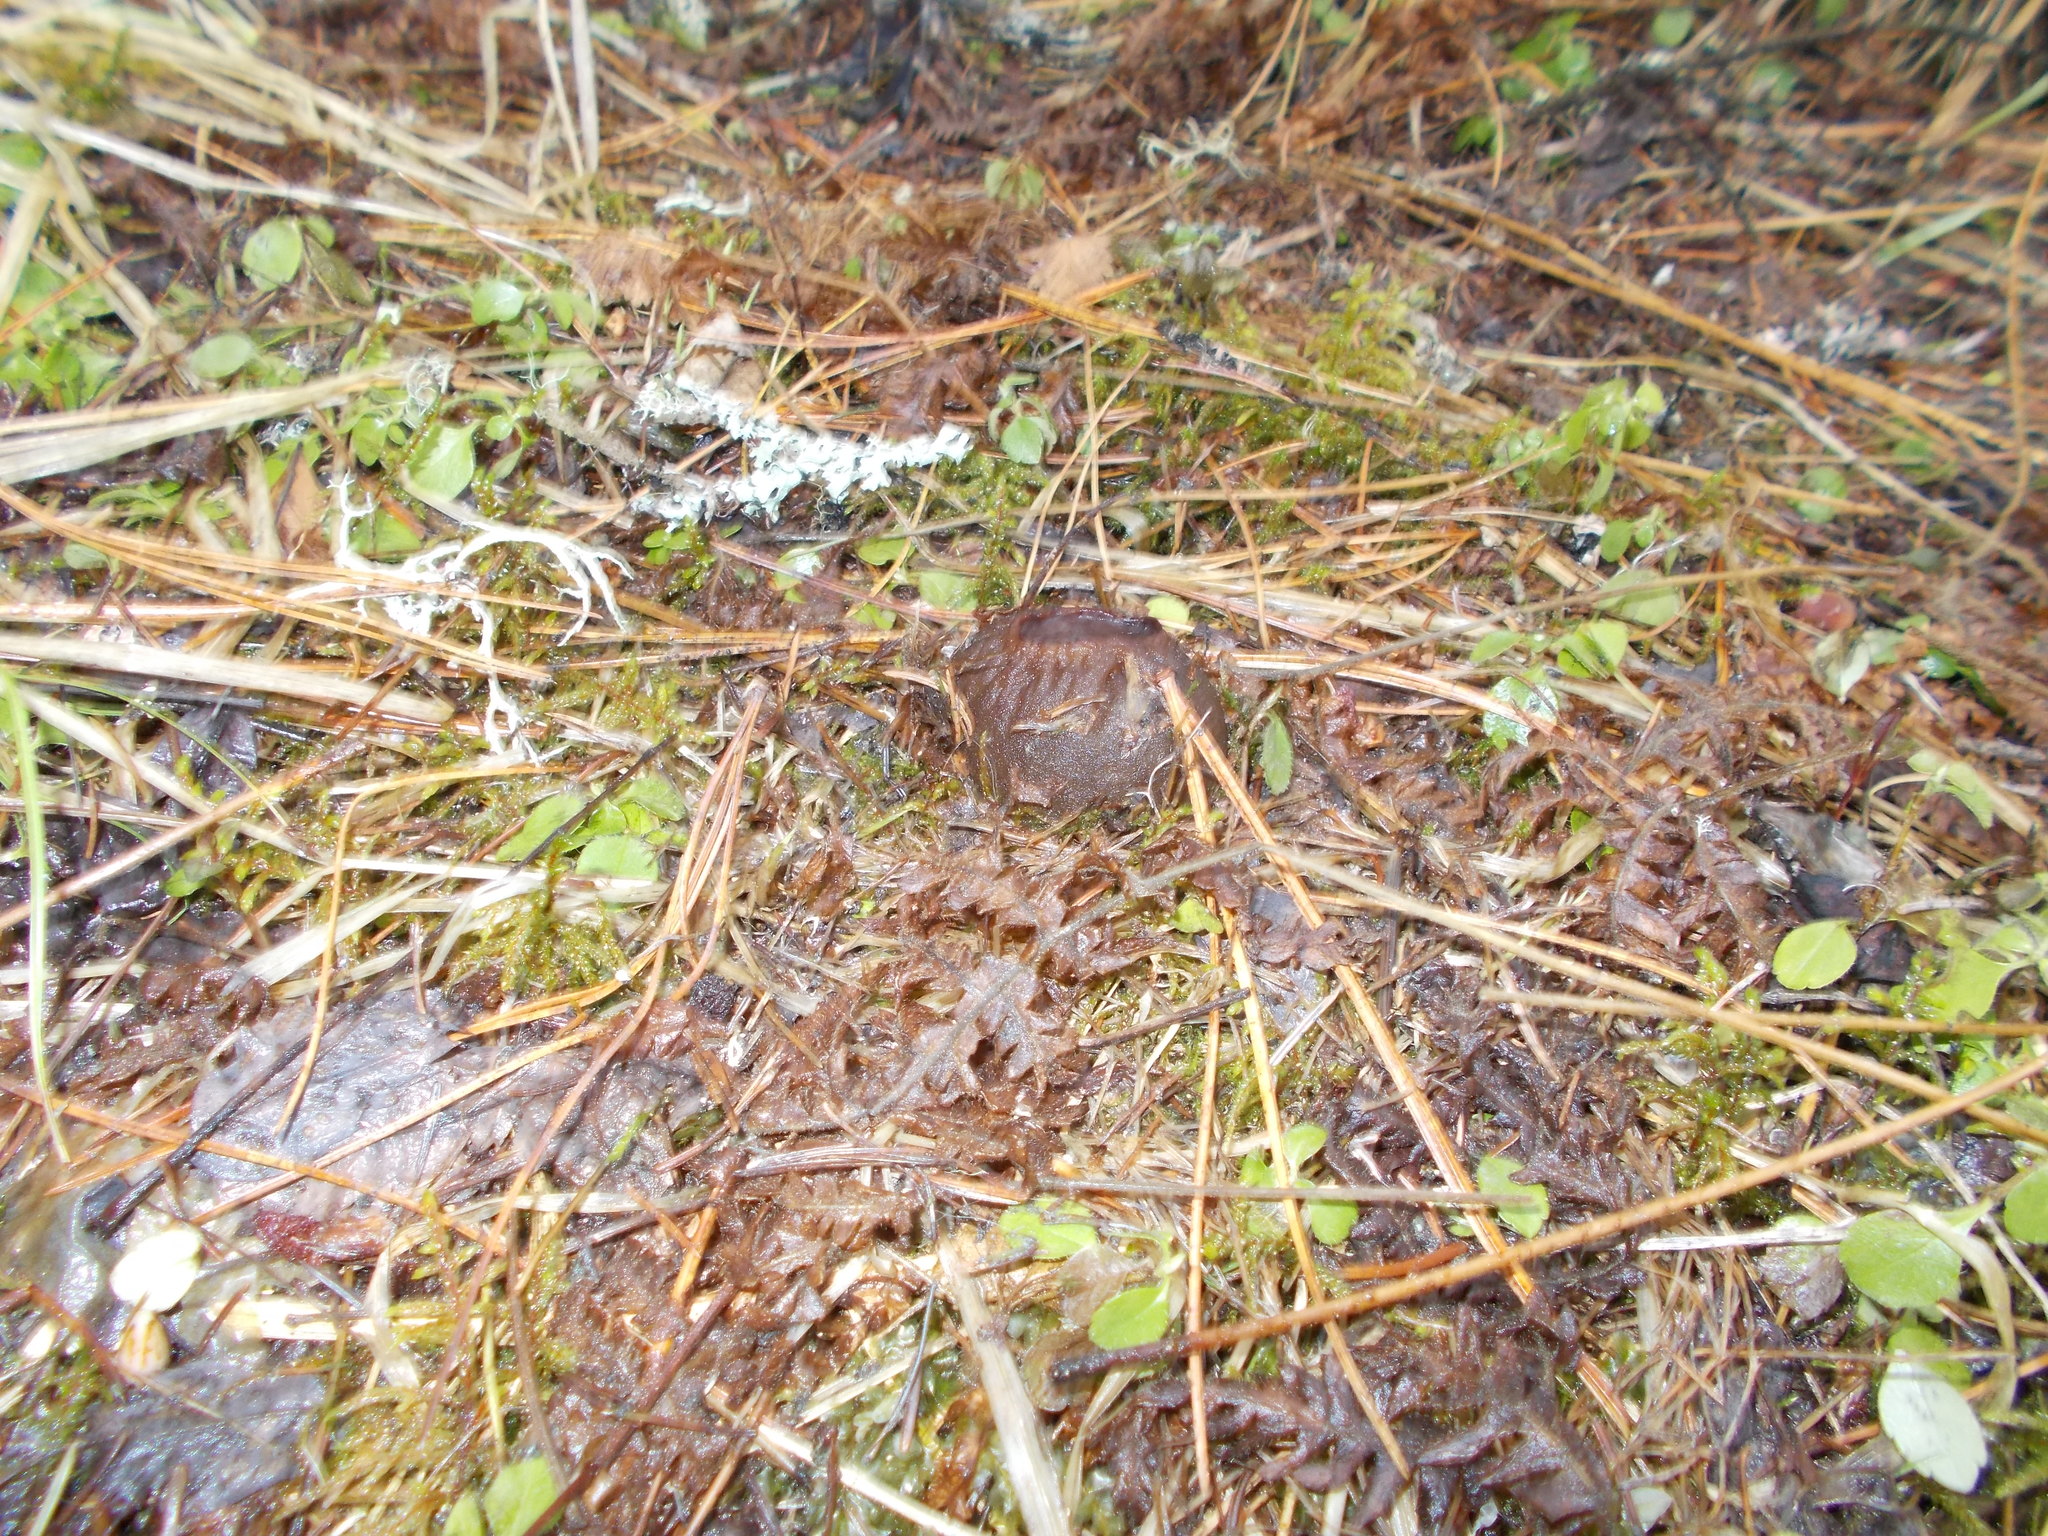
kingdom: Fungi
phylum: Ascomycota
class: Pezizomycetes
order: Pezizales
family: Sarcosomataceae
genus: Sarcosoma
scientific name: Sarcosoma globosum
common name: Charred-pancake cup
